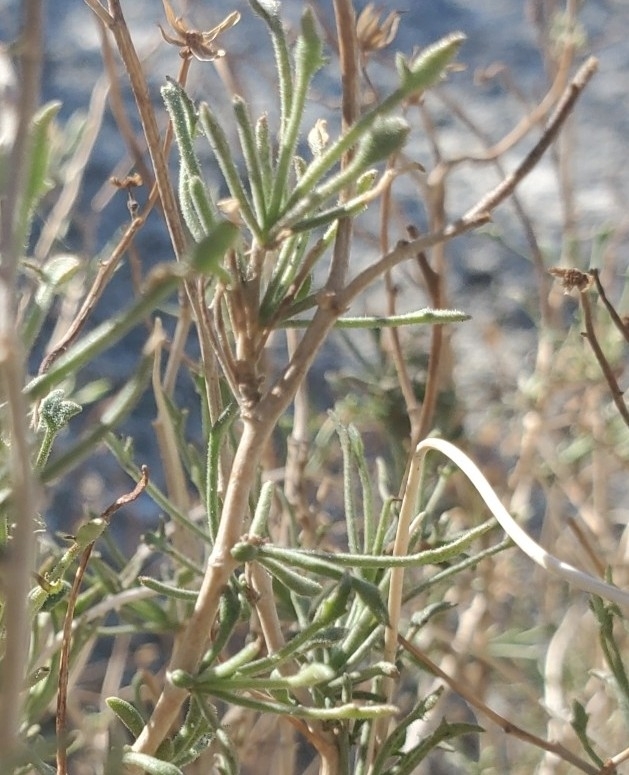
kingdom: Plantae
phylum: Tracheophyta
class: Magnoliopsida
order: Asterales
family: Asteraceae
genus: Pleurocoronis
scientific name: Pleurocoronis pluriseta
